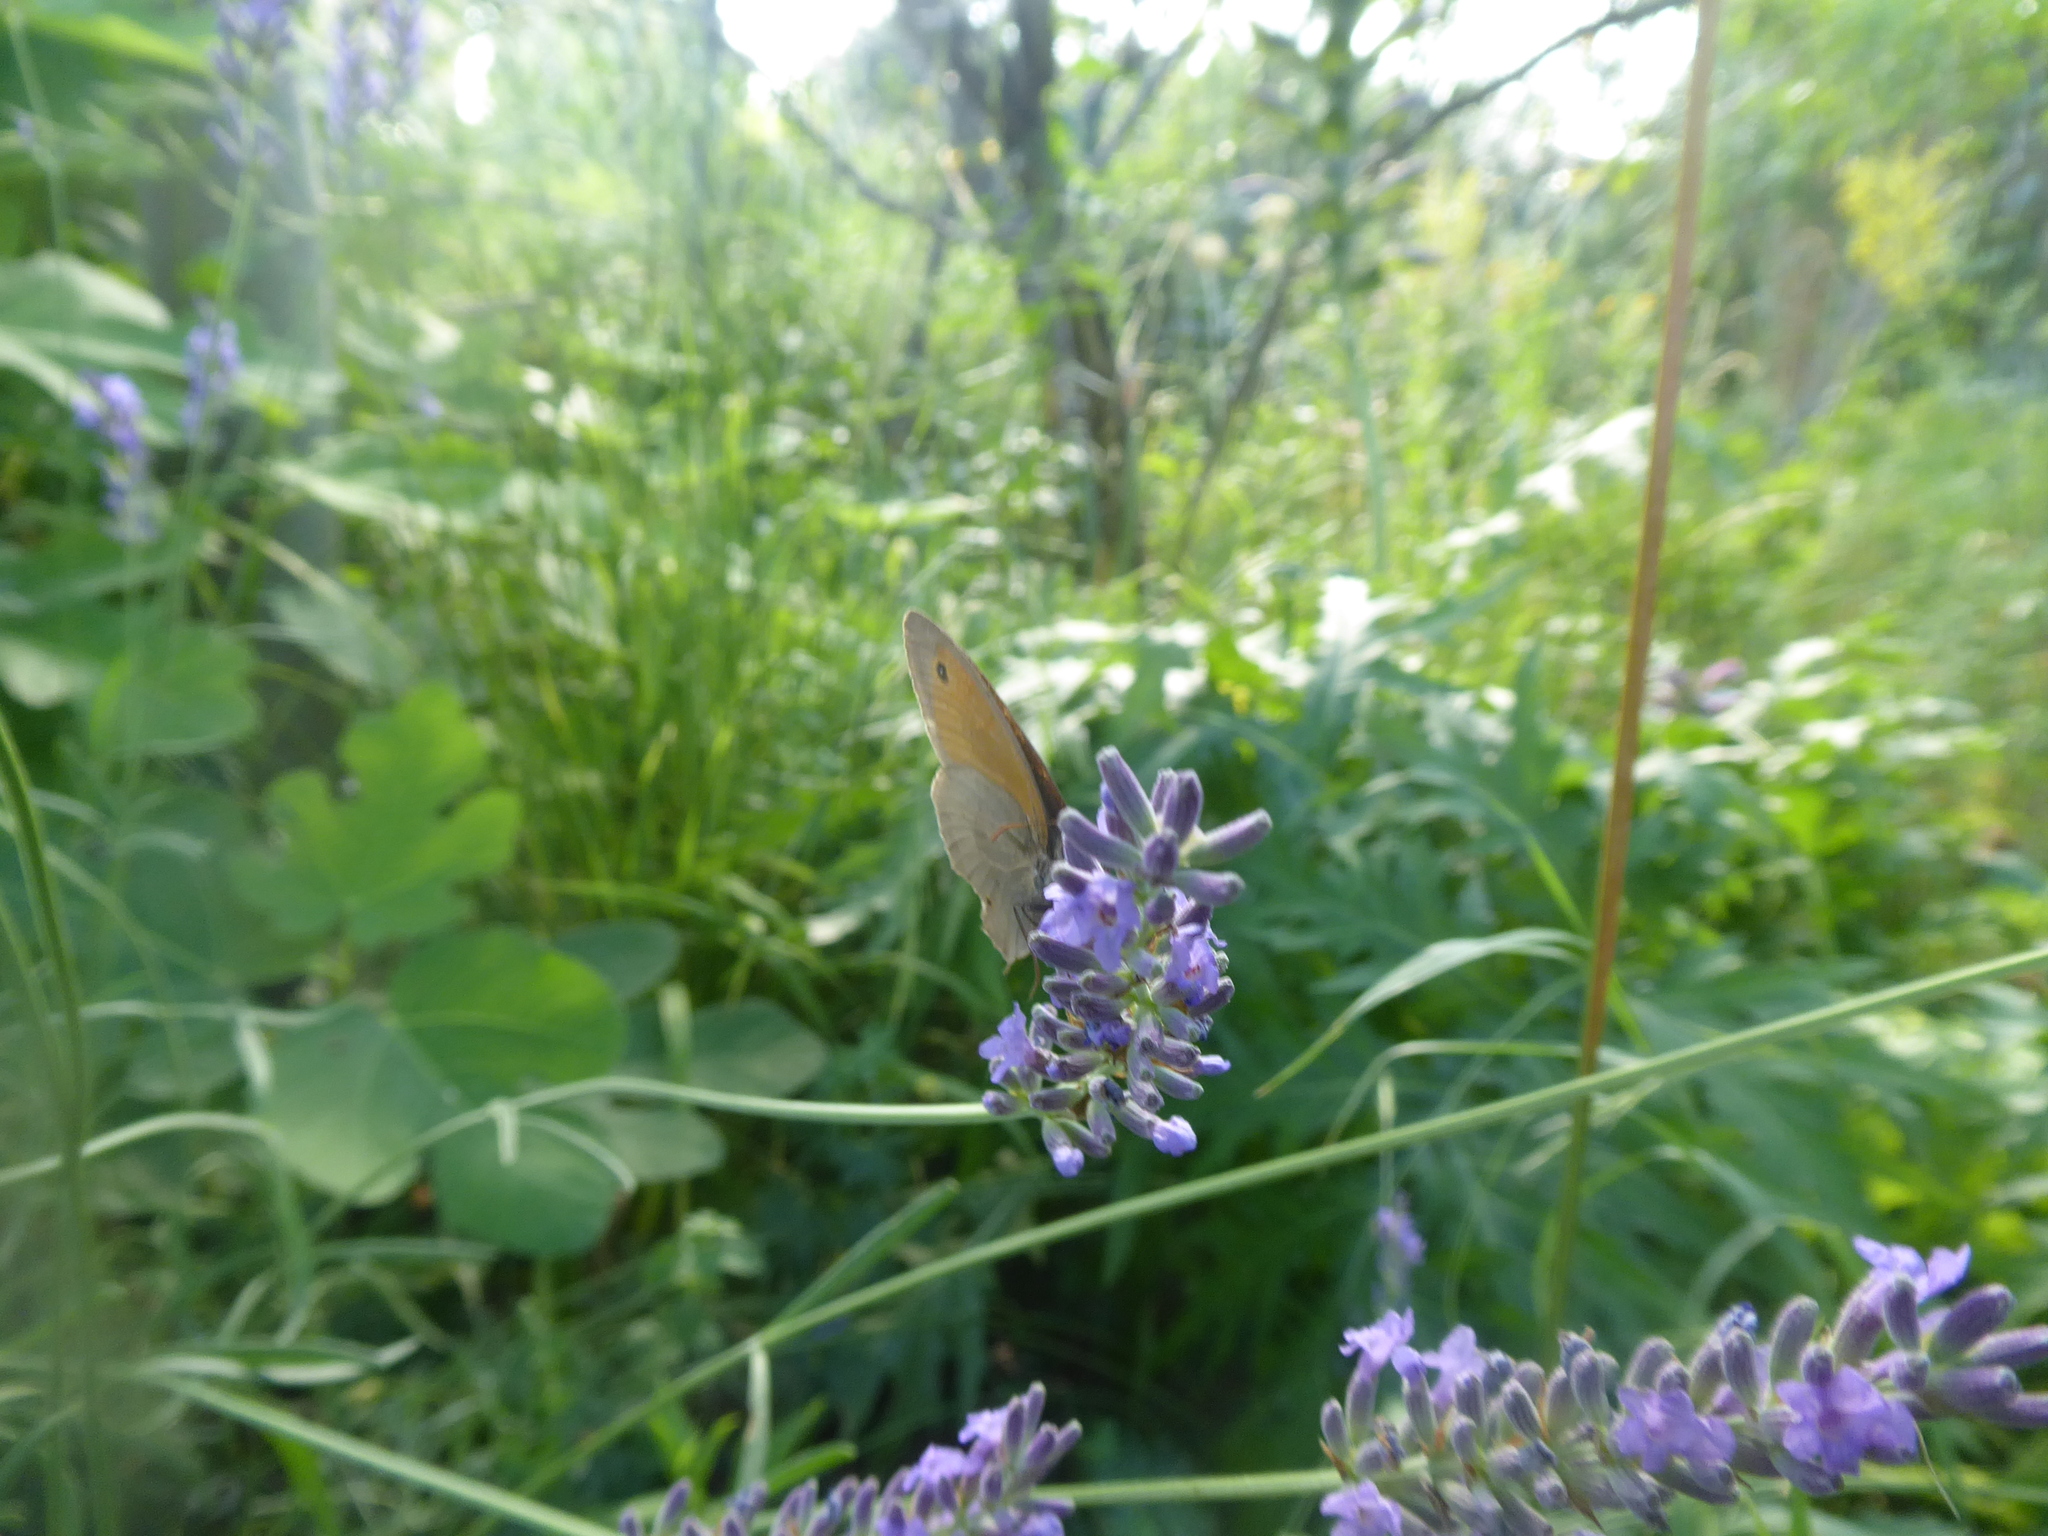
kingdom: Animalia
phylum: Arthropoda
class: Insecta
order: Lepidoptera
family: Nymphalidae
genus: Maniola
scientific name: Maniola jurtina
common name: Meadow brown
